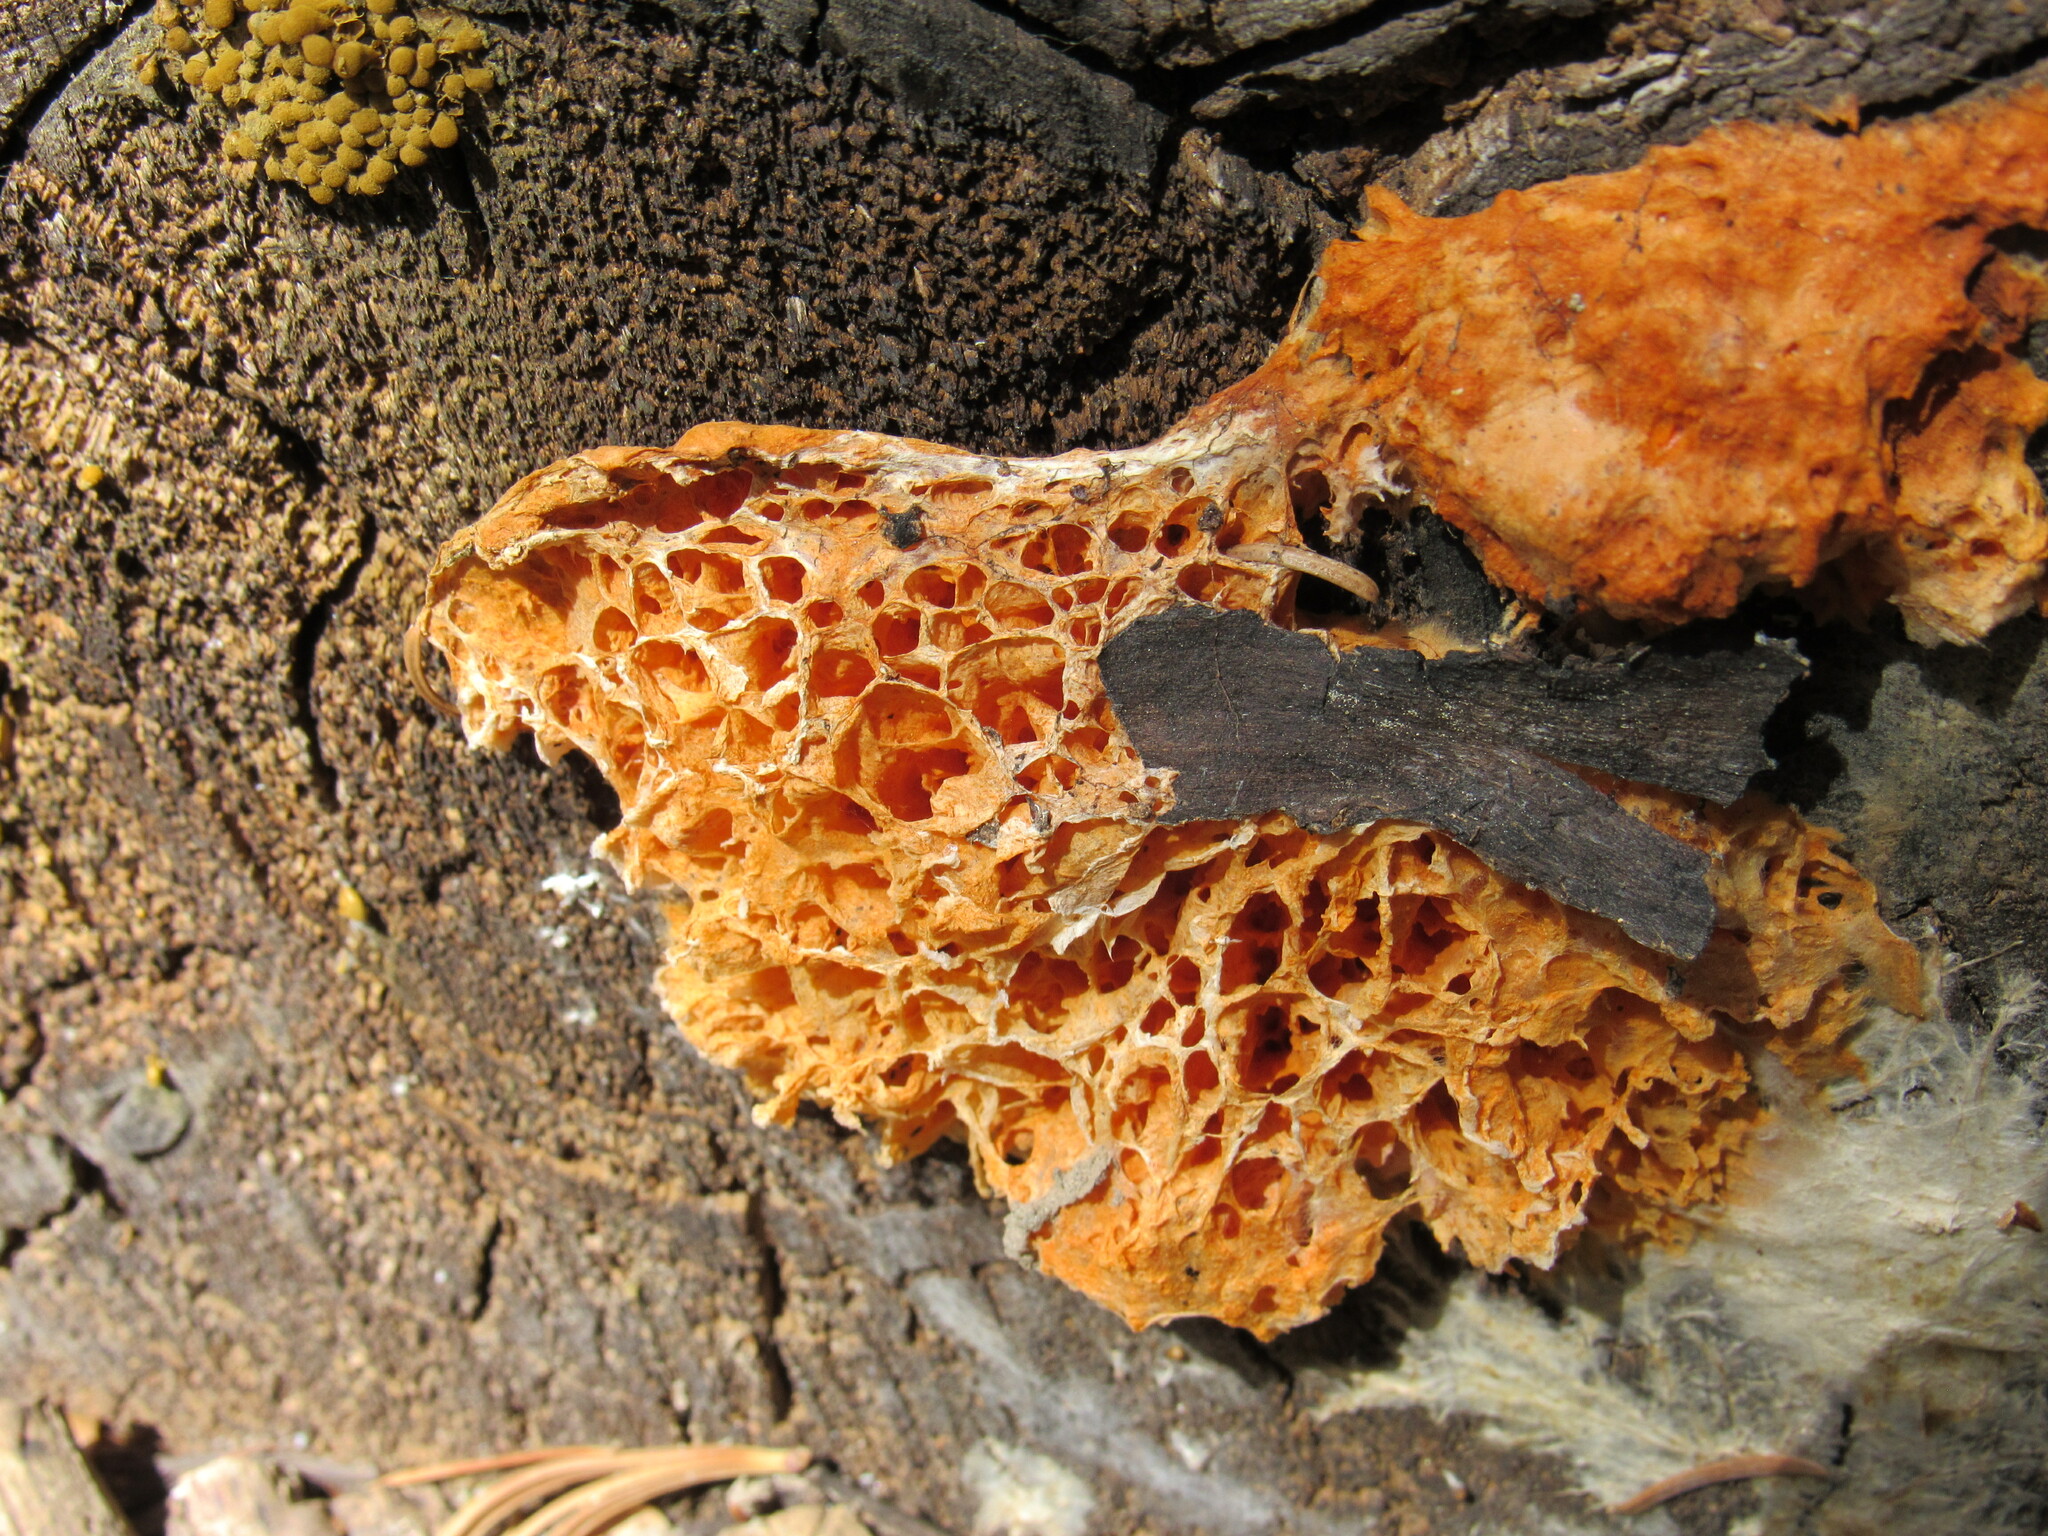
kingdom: Fungi
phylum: Basidiomycota
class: Agaricomycetes
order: Polyporales
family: Pycnoporellaceae
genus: Pycnoporellus
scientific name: Pycnoporellus alboluteus
